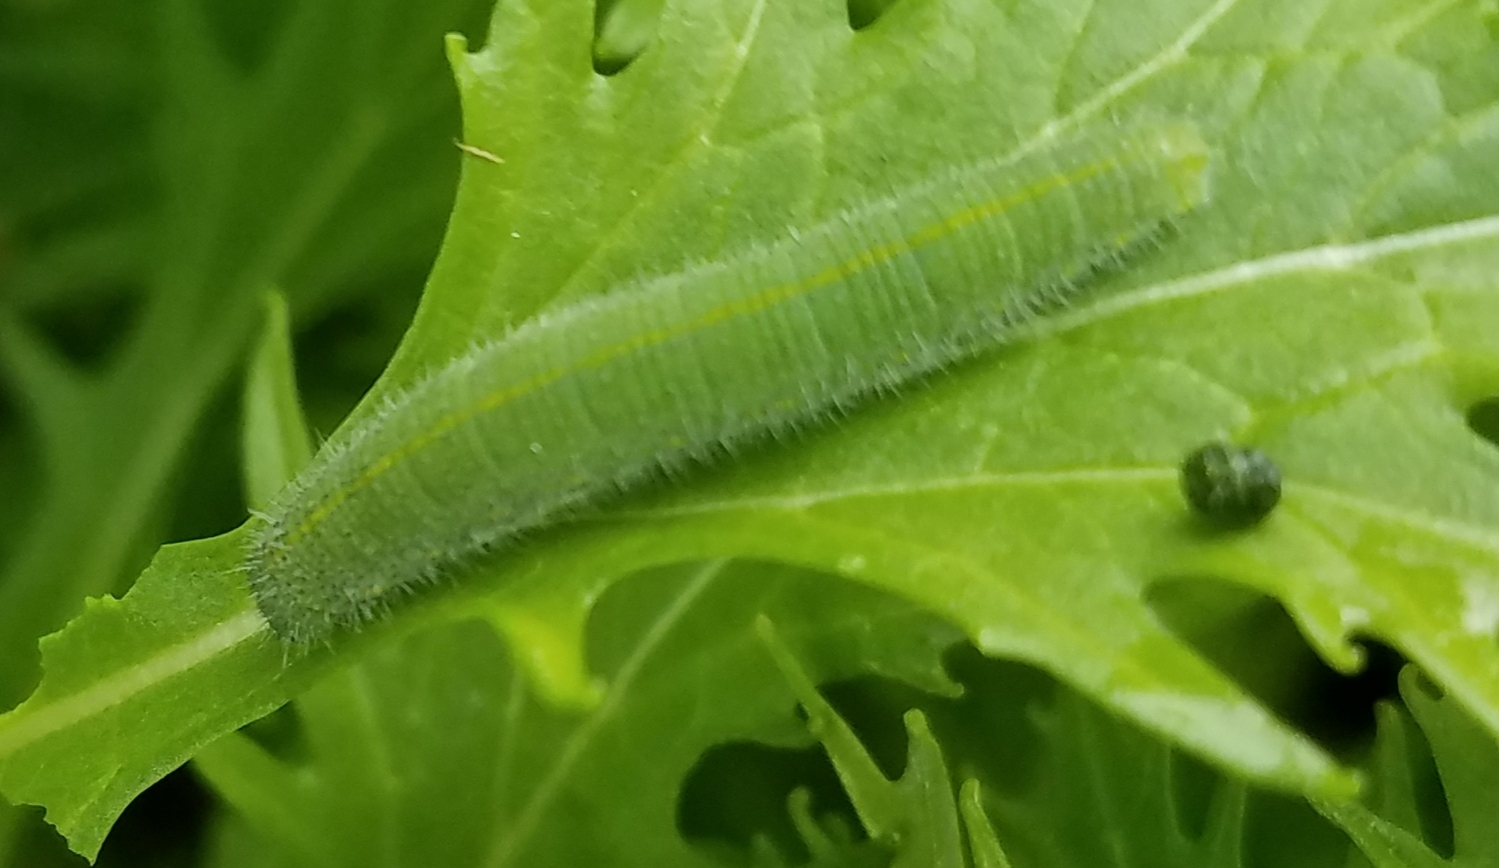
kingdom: Animalia
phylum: Arthropoda
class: Insecta
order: Lepidoptera
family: Pieridae
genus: Pieris
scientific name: Pieris rapae
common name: Small white
